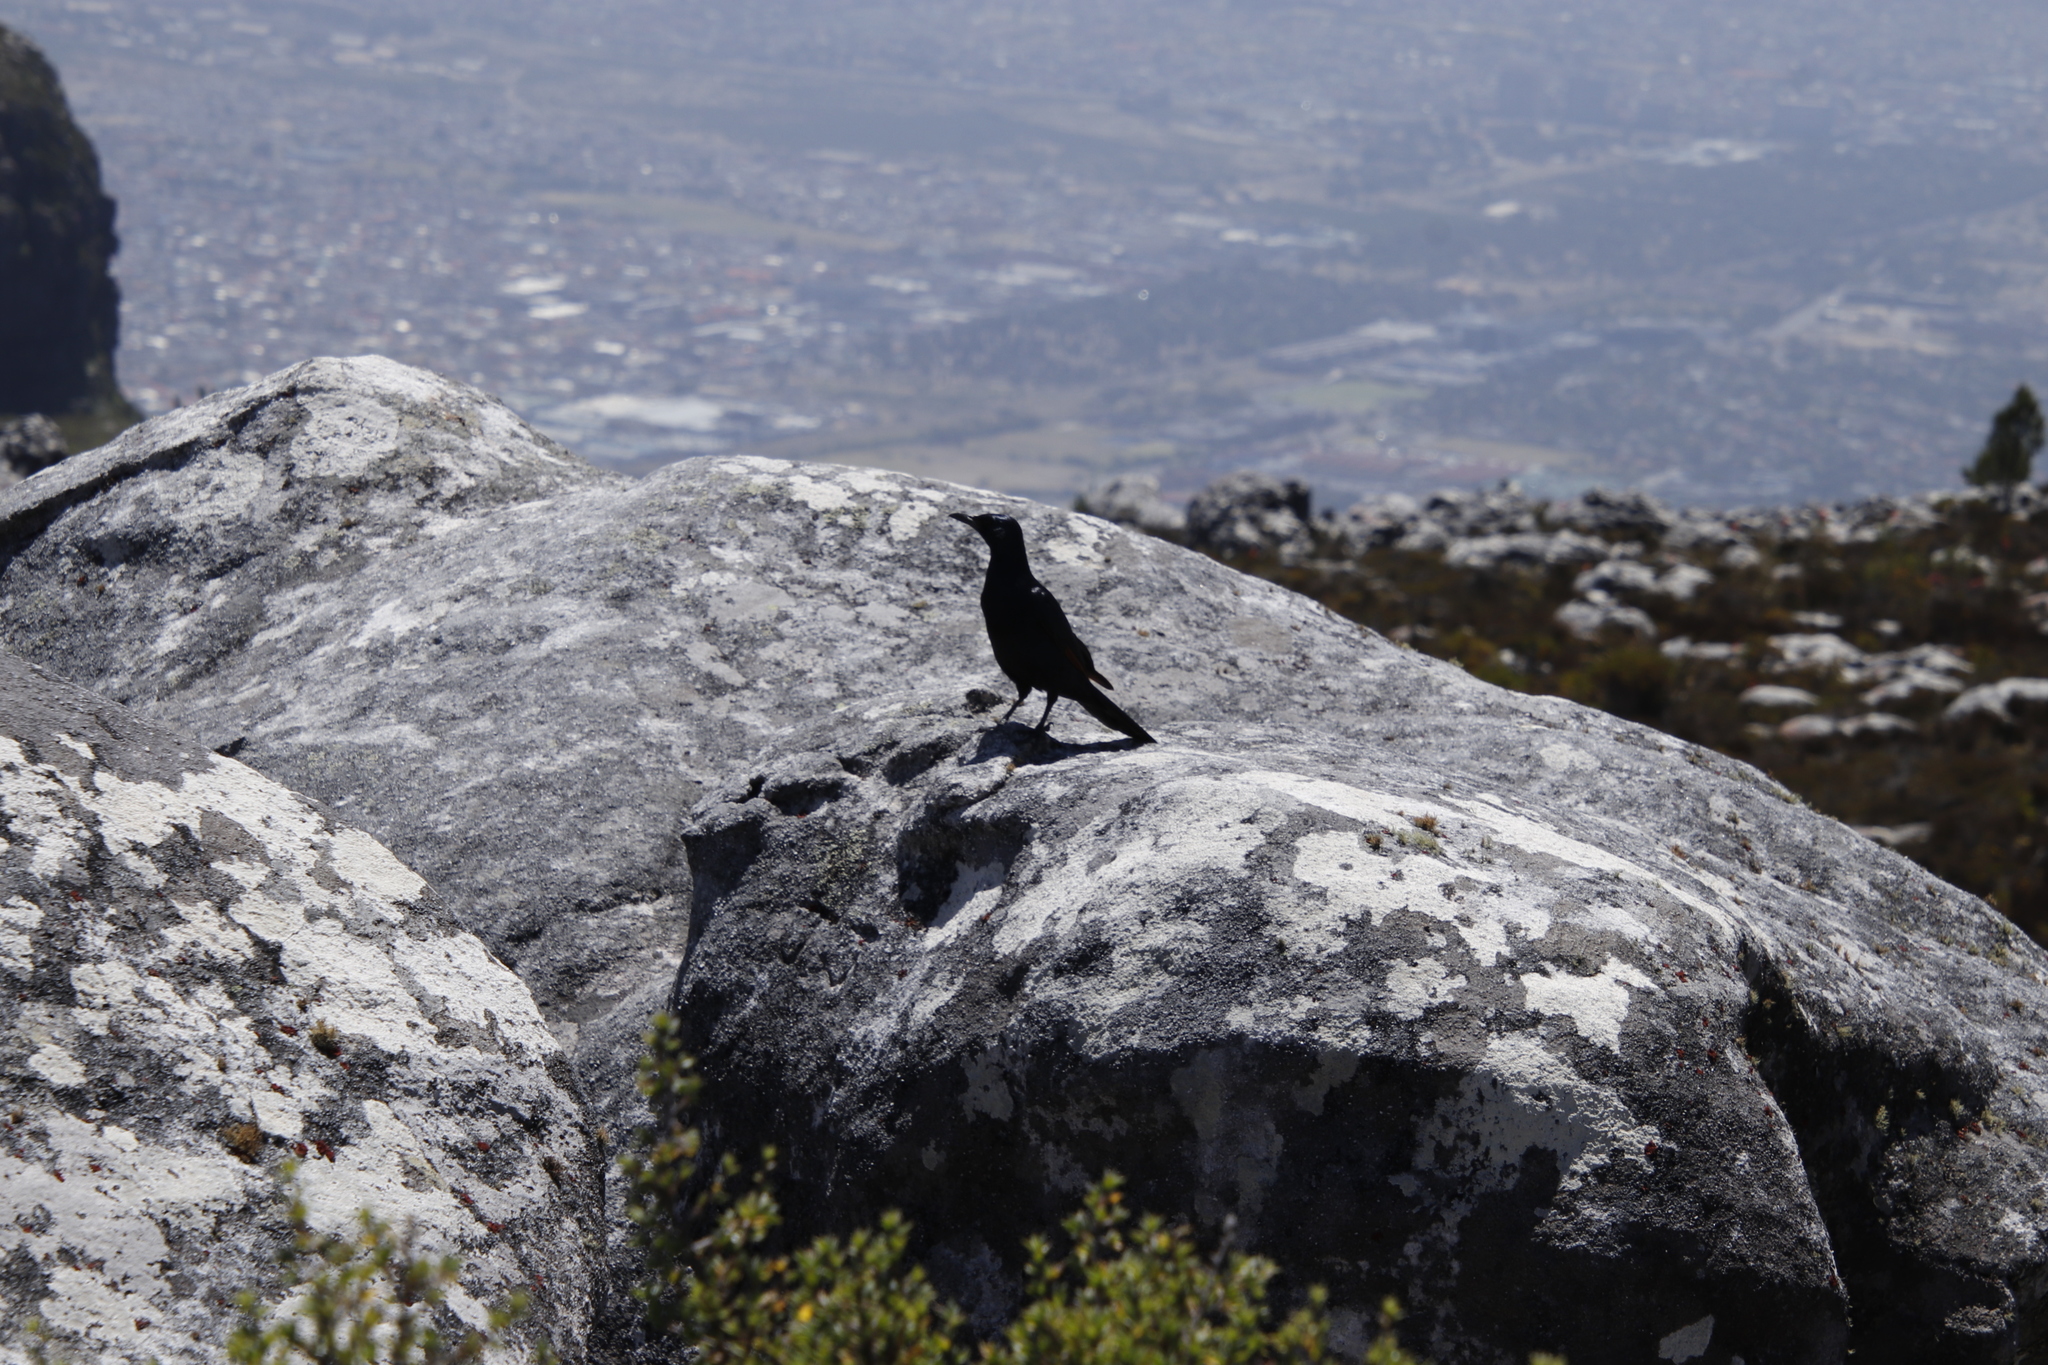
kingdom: Animalia
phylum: Chordata
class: Aves
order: Passeriformes
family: Sturnidae
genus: Onychognathus
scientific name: Onychognathus morio
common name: Red-winged starling
